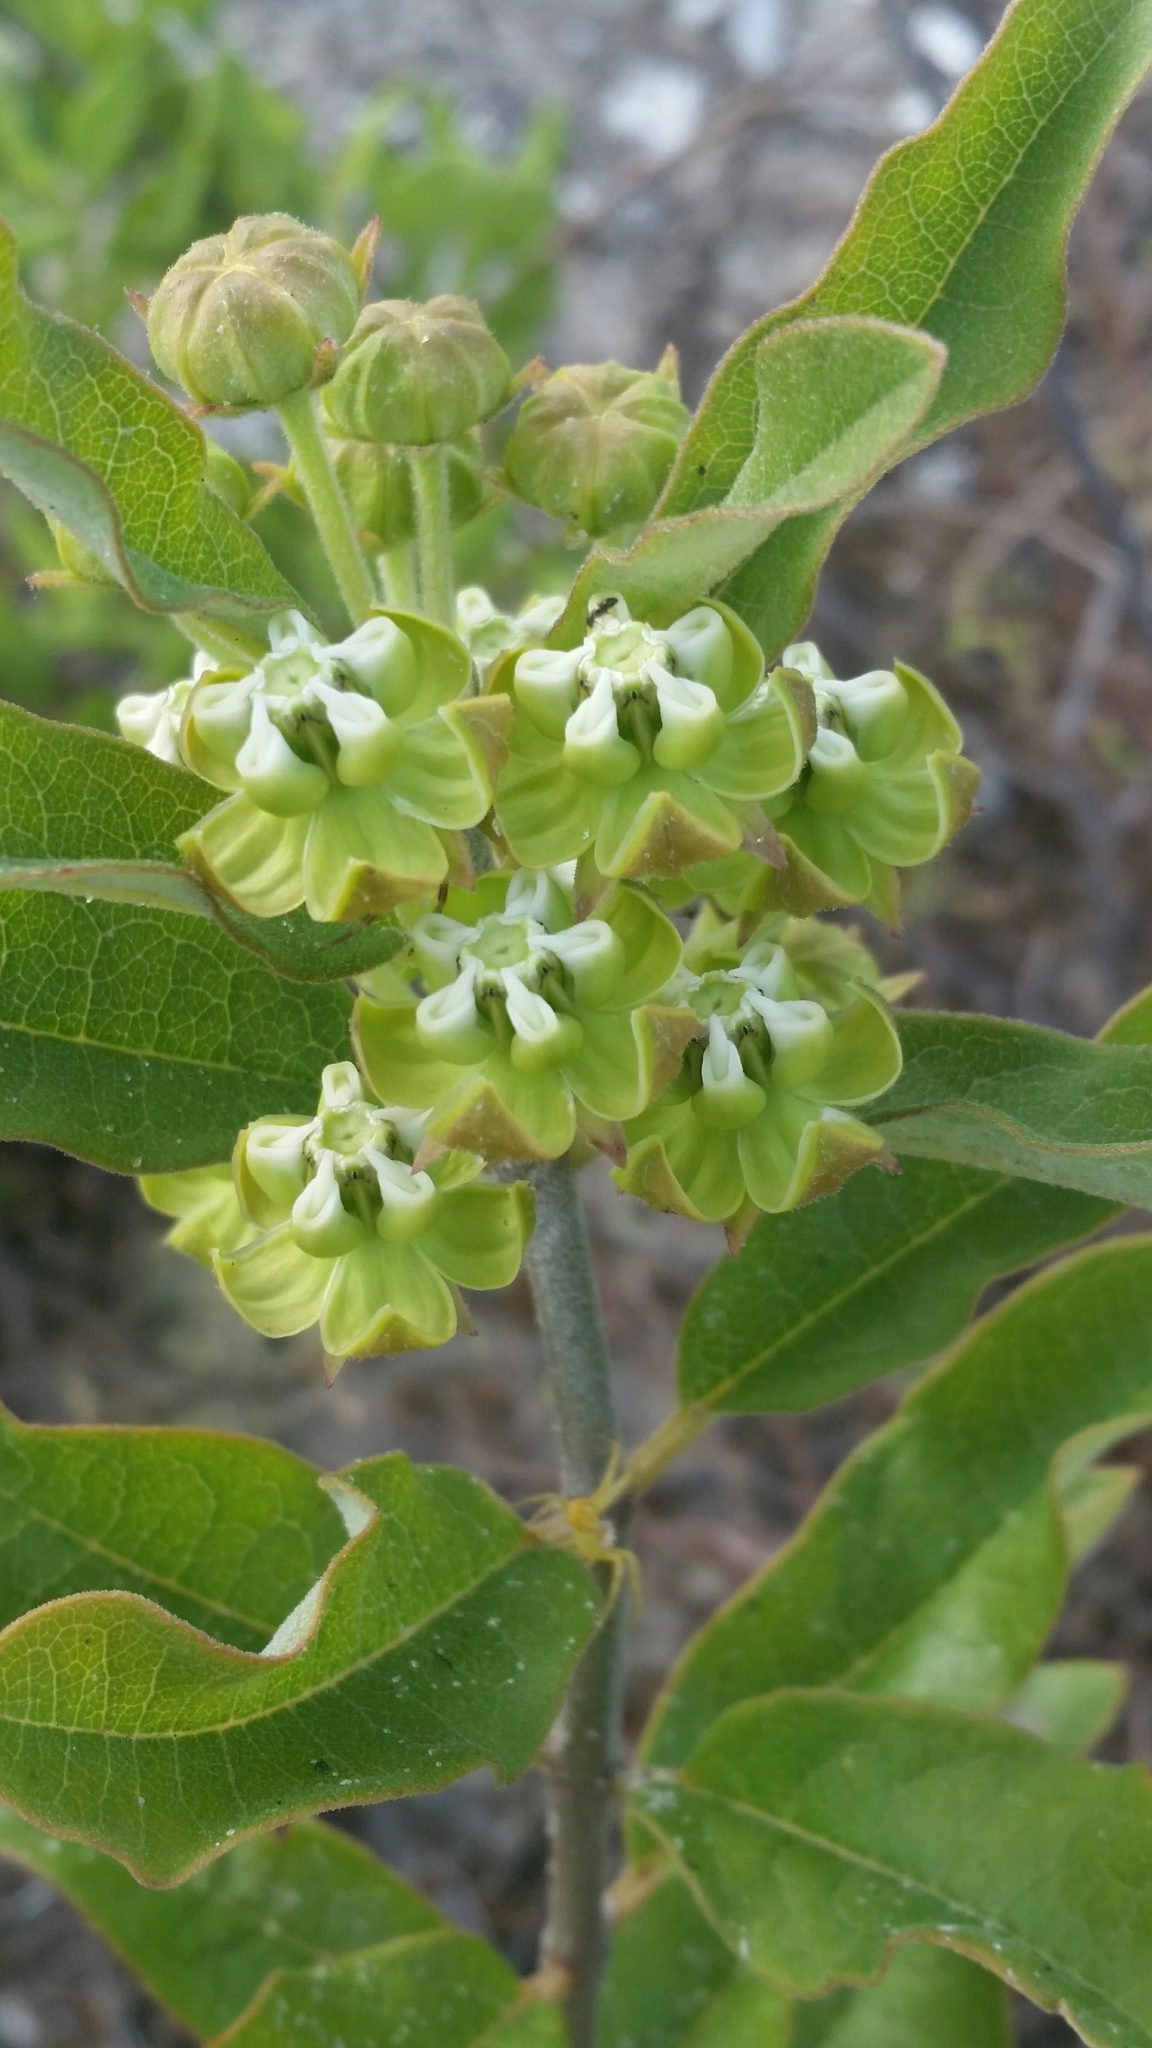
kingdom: Plantae
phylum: Tracheophyta
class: Magnoliopsida
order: Gentianales
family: Apocynaceae
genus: Asclepias
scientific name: Asclepias tomentosa
